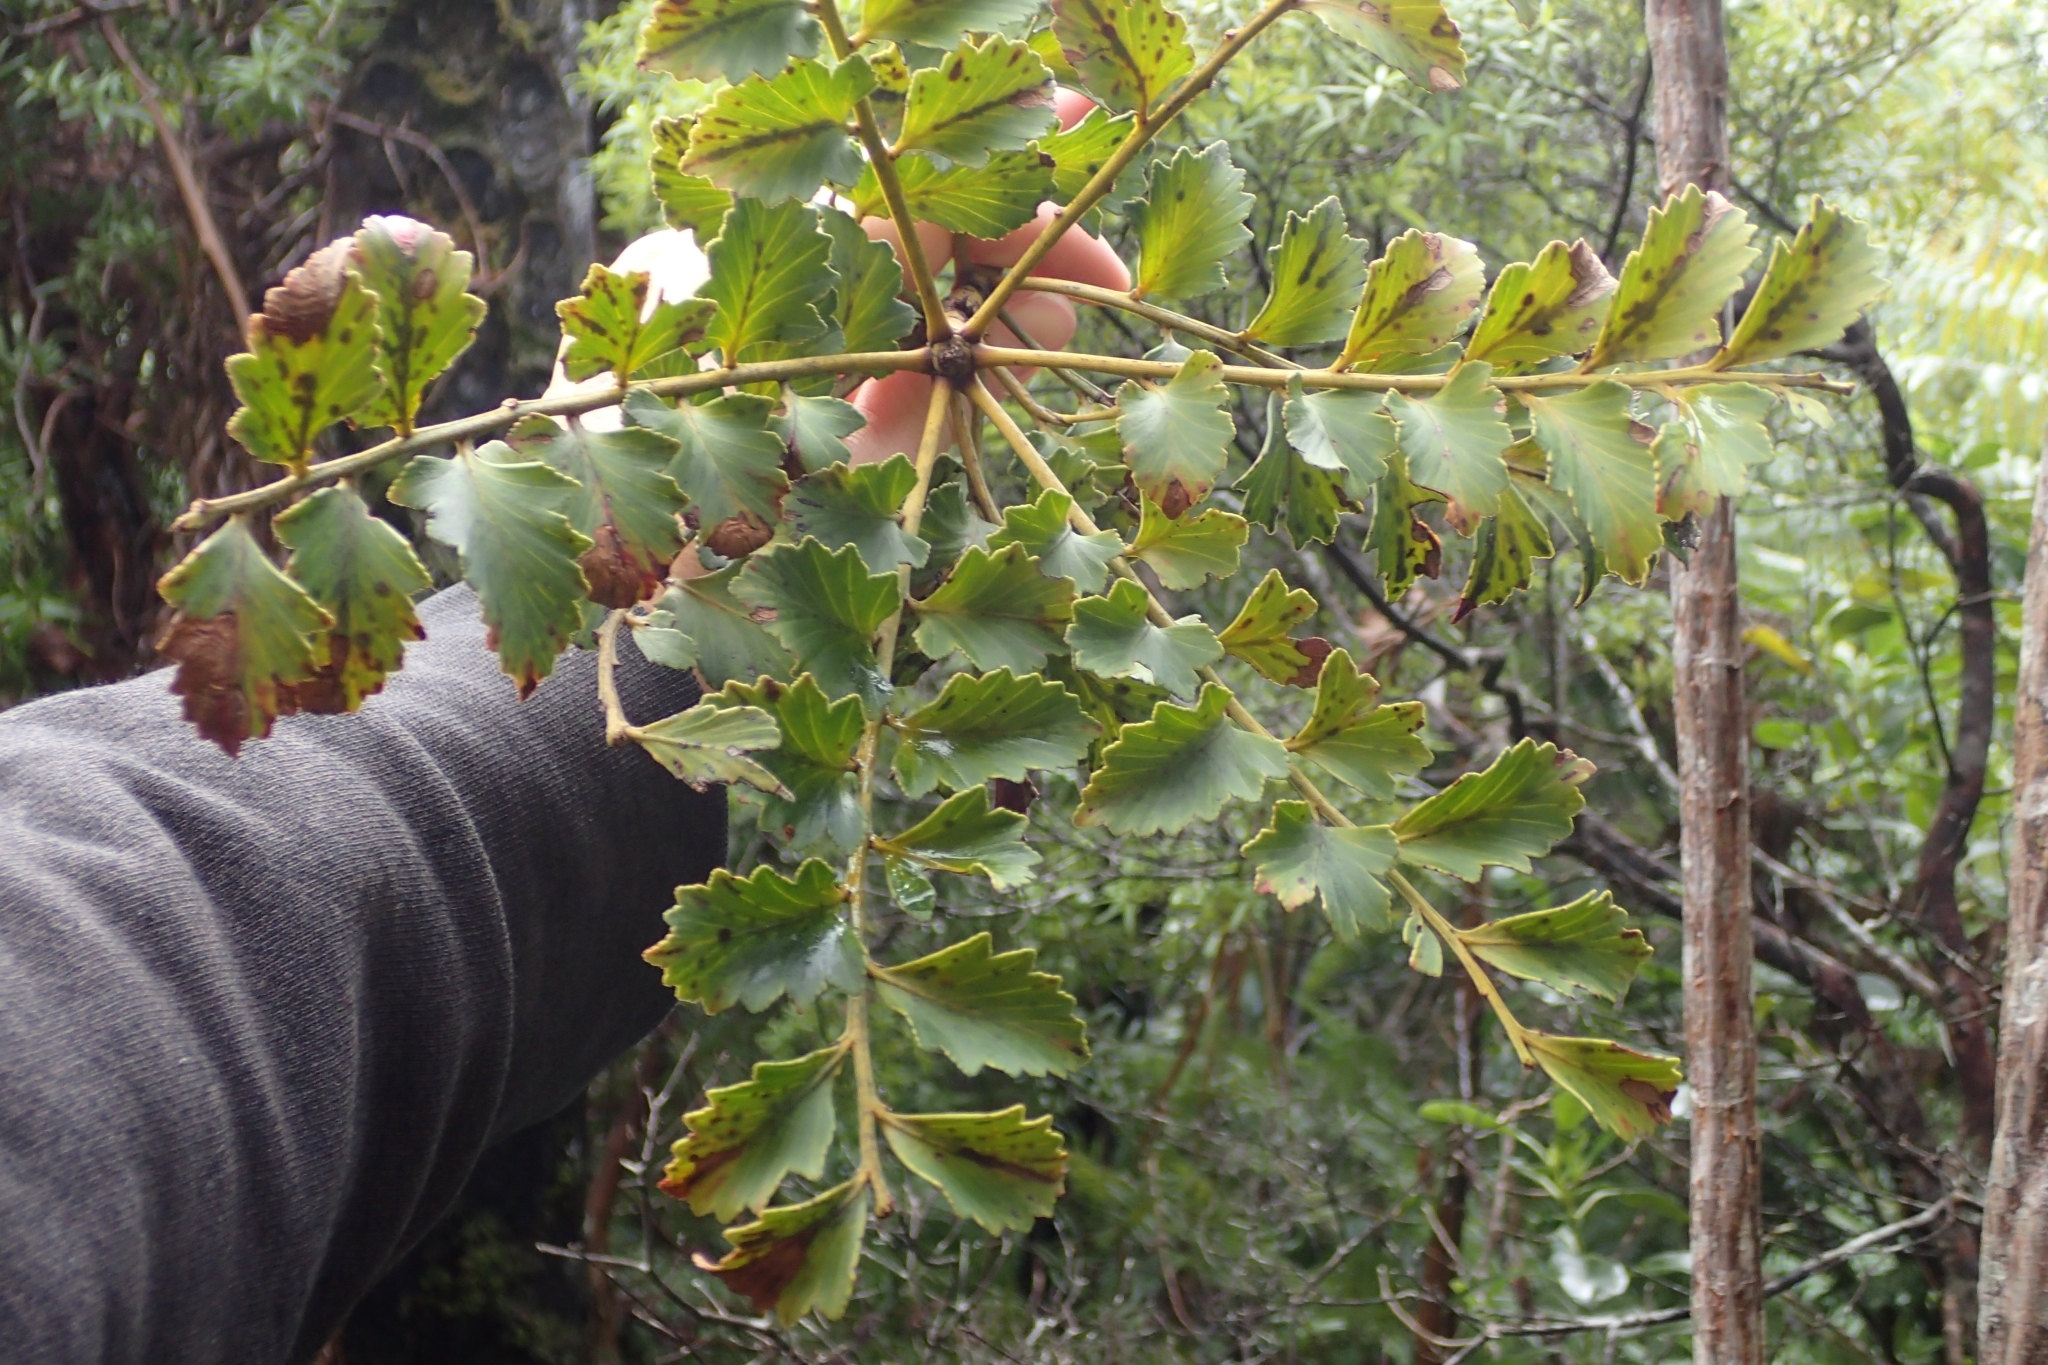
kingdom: Plantae
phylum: Tracheophyta
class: Pinopsida
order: Pinales
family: Phyllocladaceae
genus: Phyllocladus
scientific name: Phyllocladus toatoa
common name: Celery-top pine
